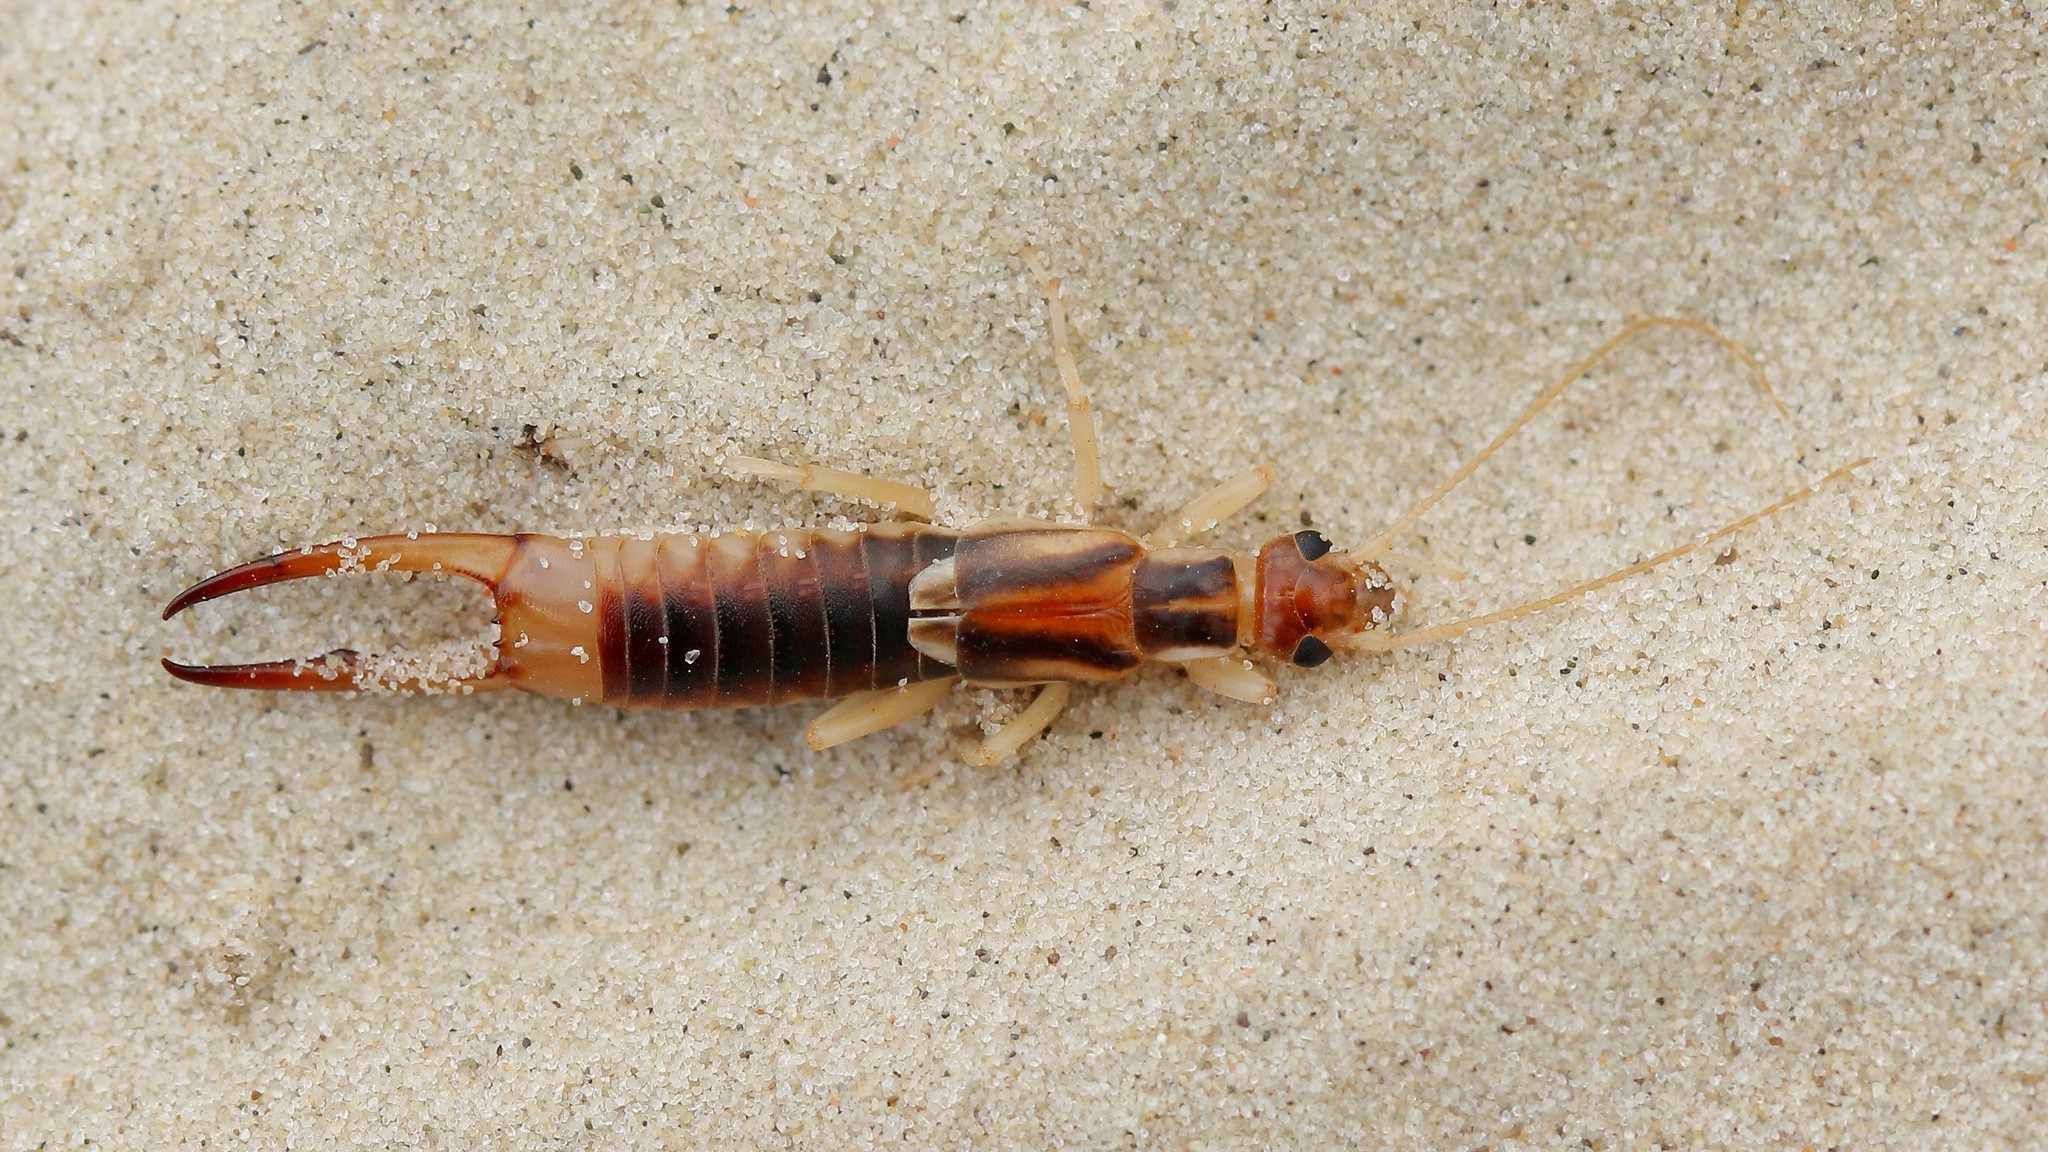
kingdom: Animalia
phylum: Arthropoda
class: Insecta
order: Dermaptera
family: Labiduridae
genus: Labidura
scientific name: Labidura riparia
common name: Striped earwig
